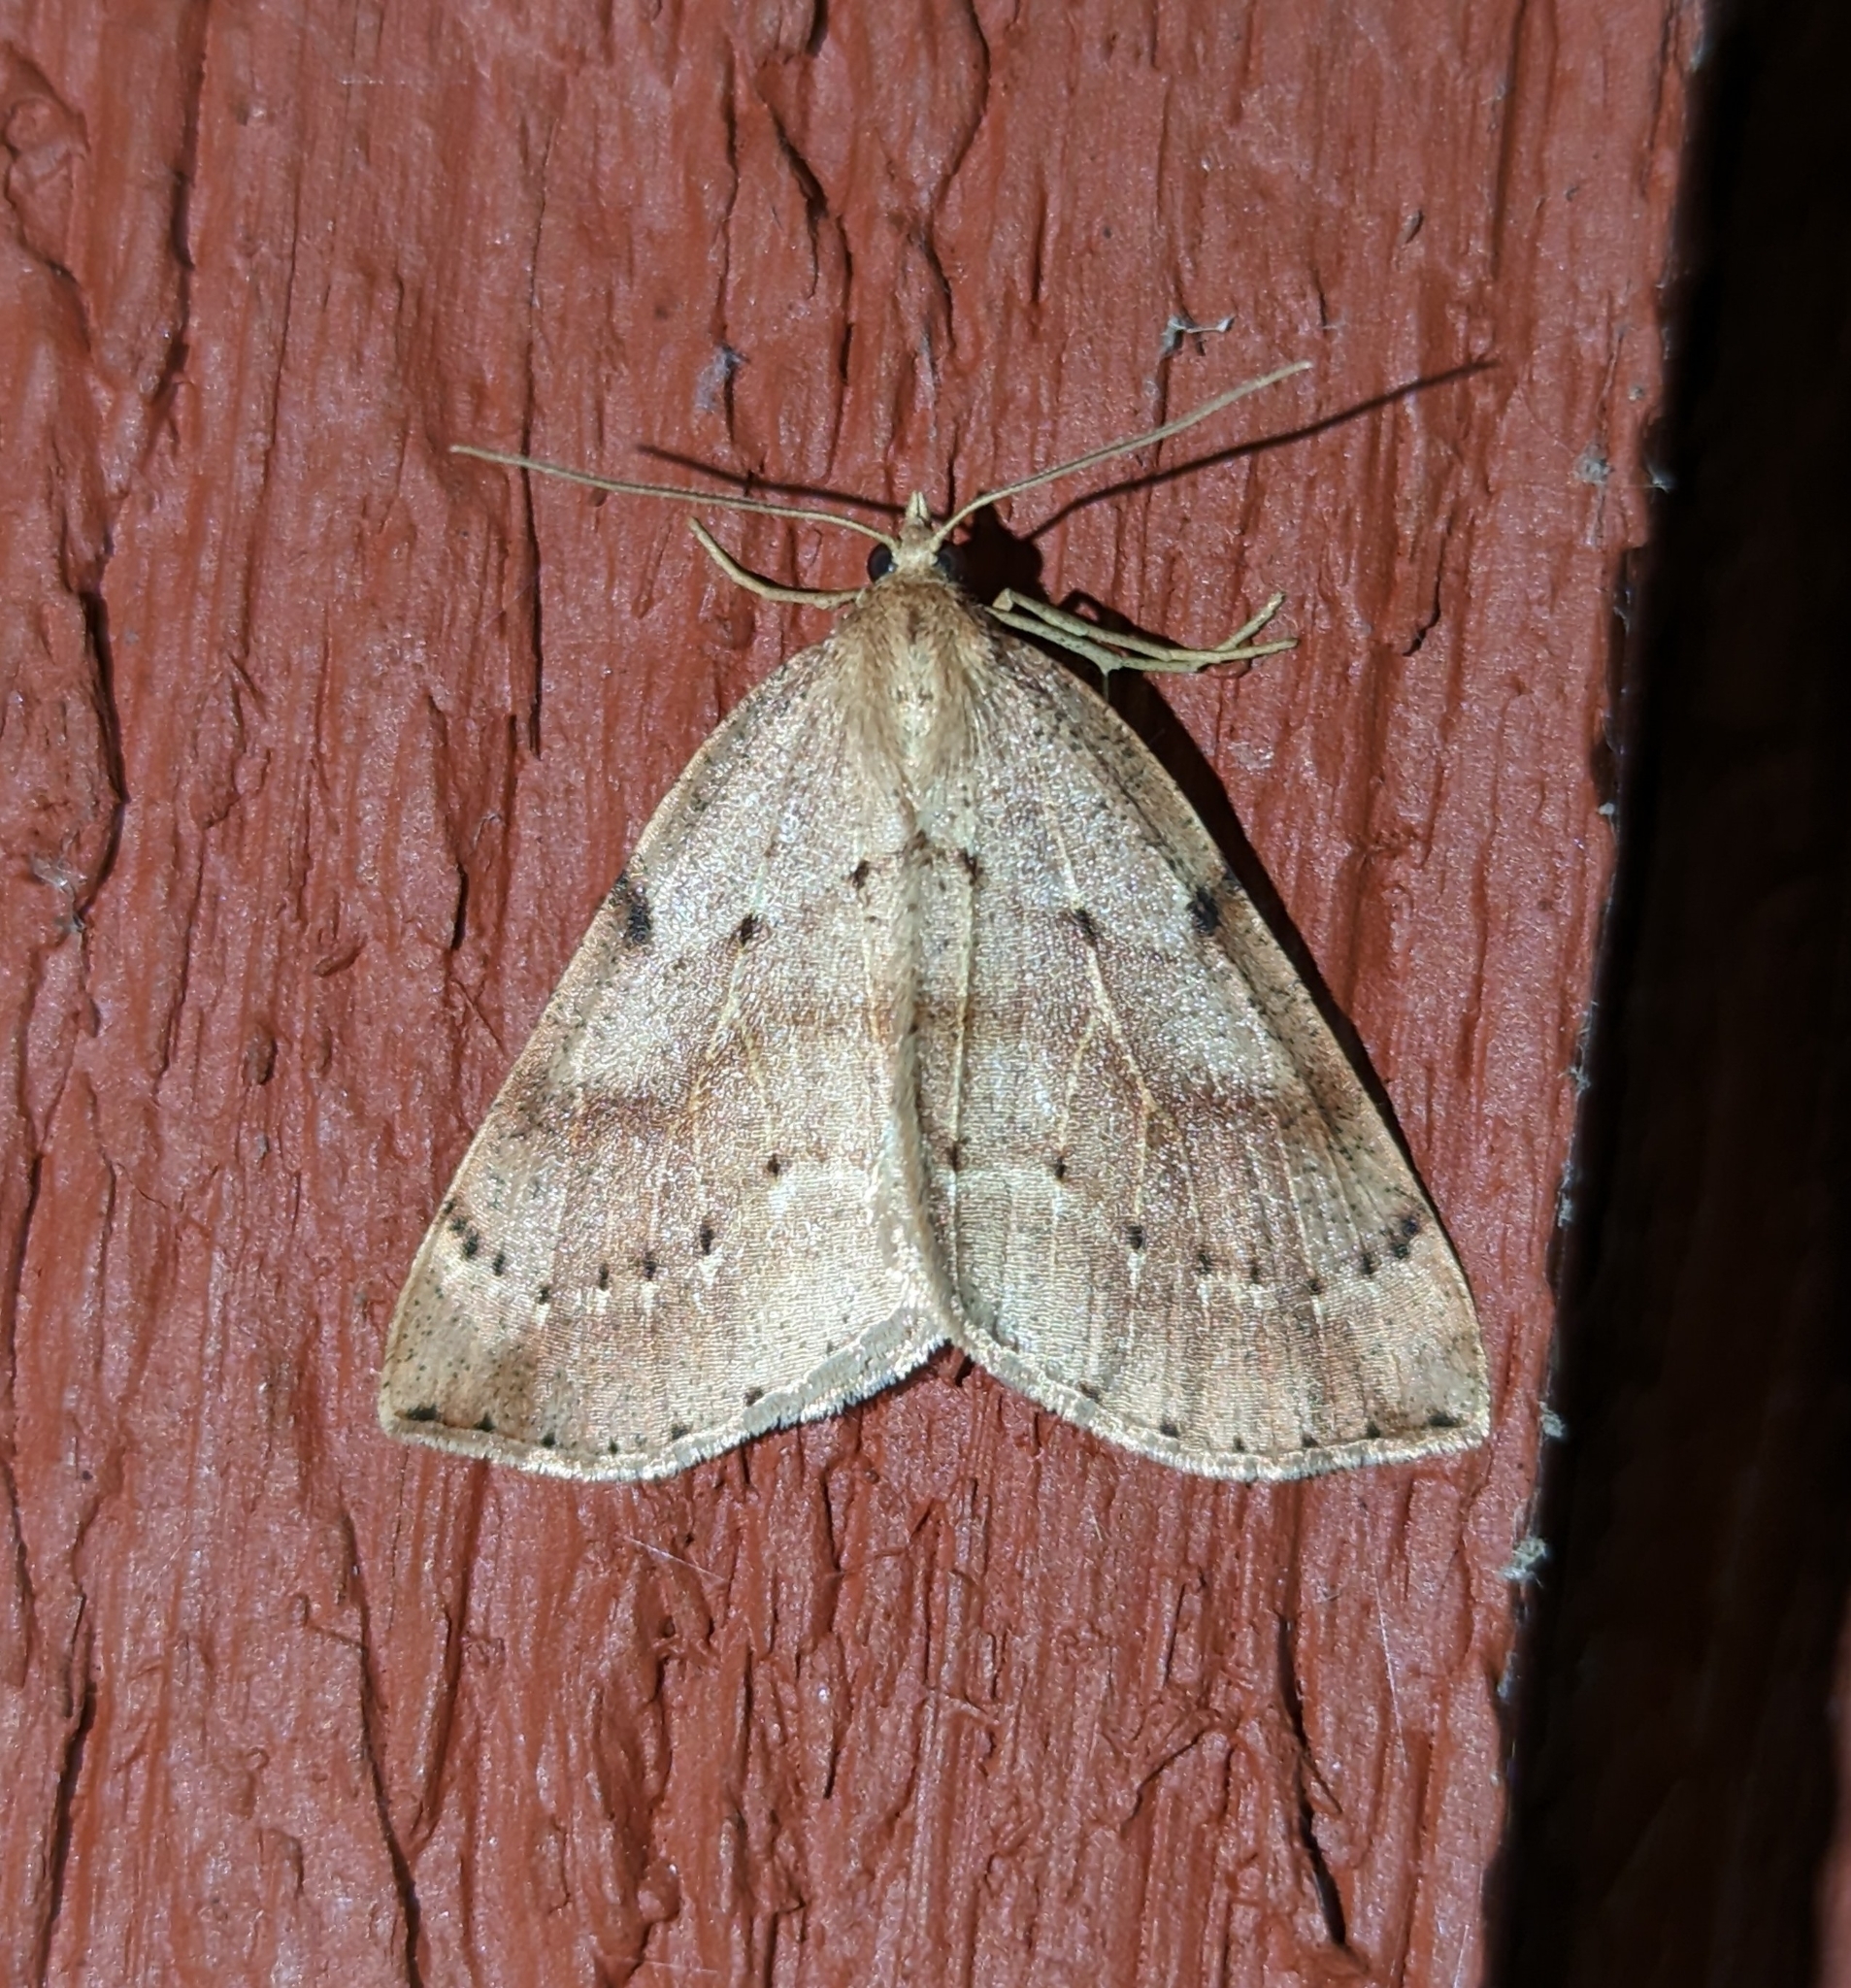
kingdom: Animalia
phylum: Arthropoda
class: Insecta
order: Lepidoptera
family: Geometridae
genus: Thallophaga
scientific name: Thallophaga hyperborea
